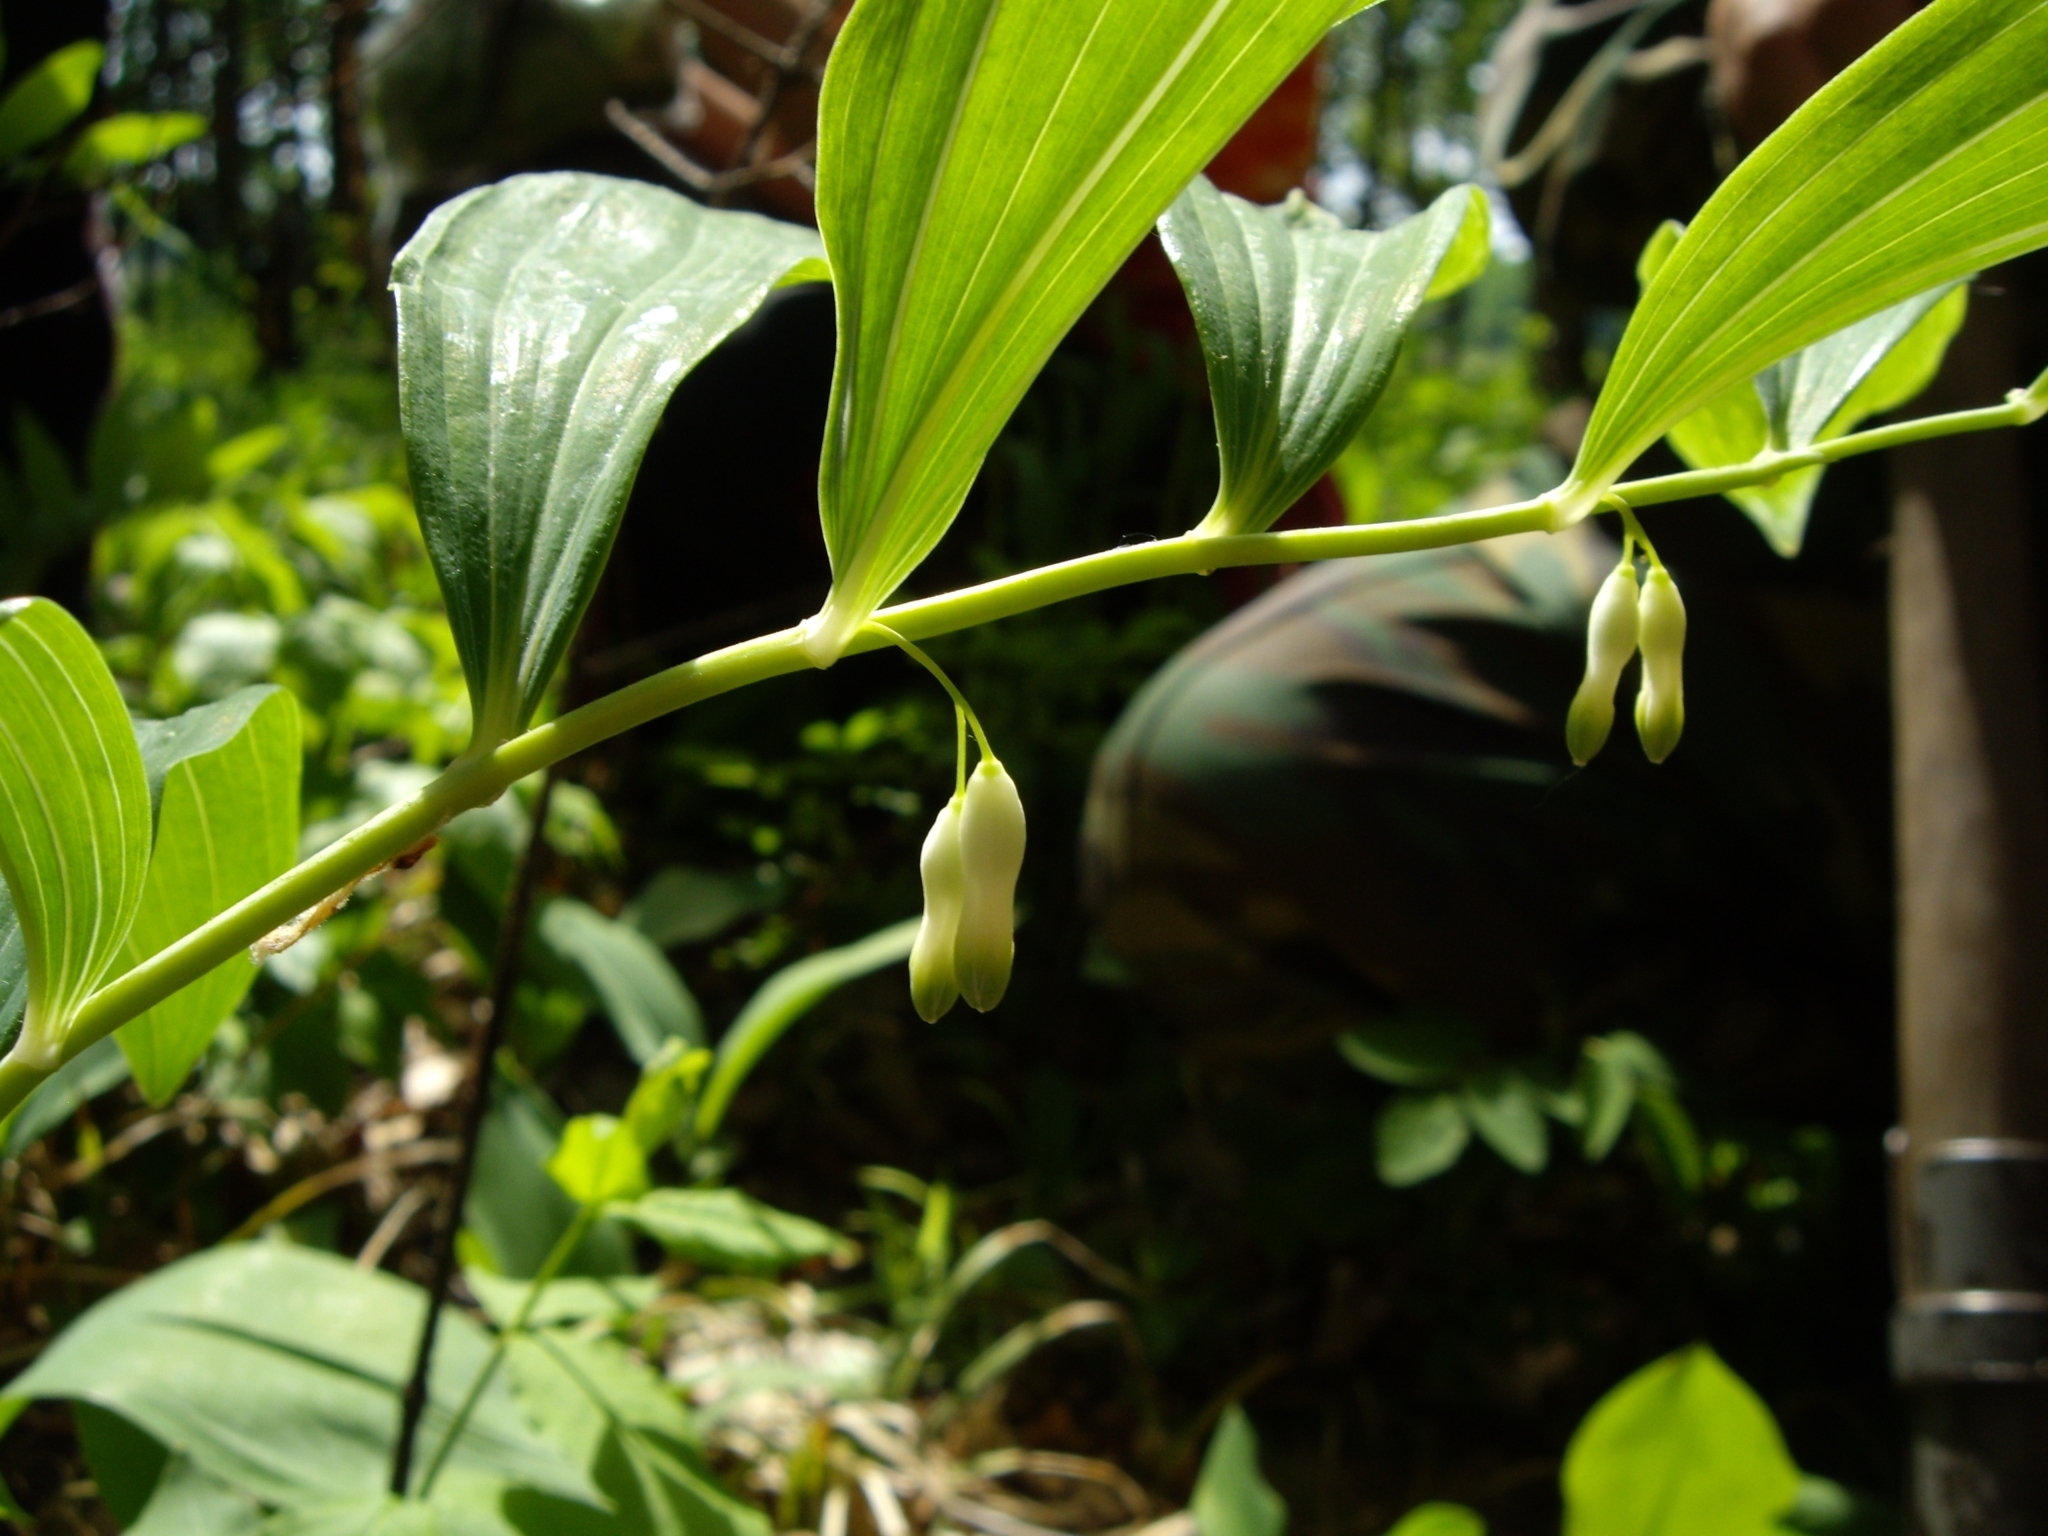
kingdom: Plantae
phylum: Tracheophyta
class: Liliopsida
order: Asparagales
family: Asparagaceae
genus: Polygonatum
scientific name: Polygonatum multiflorum
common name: Solomon's-seal
